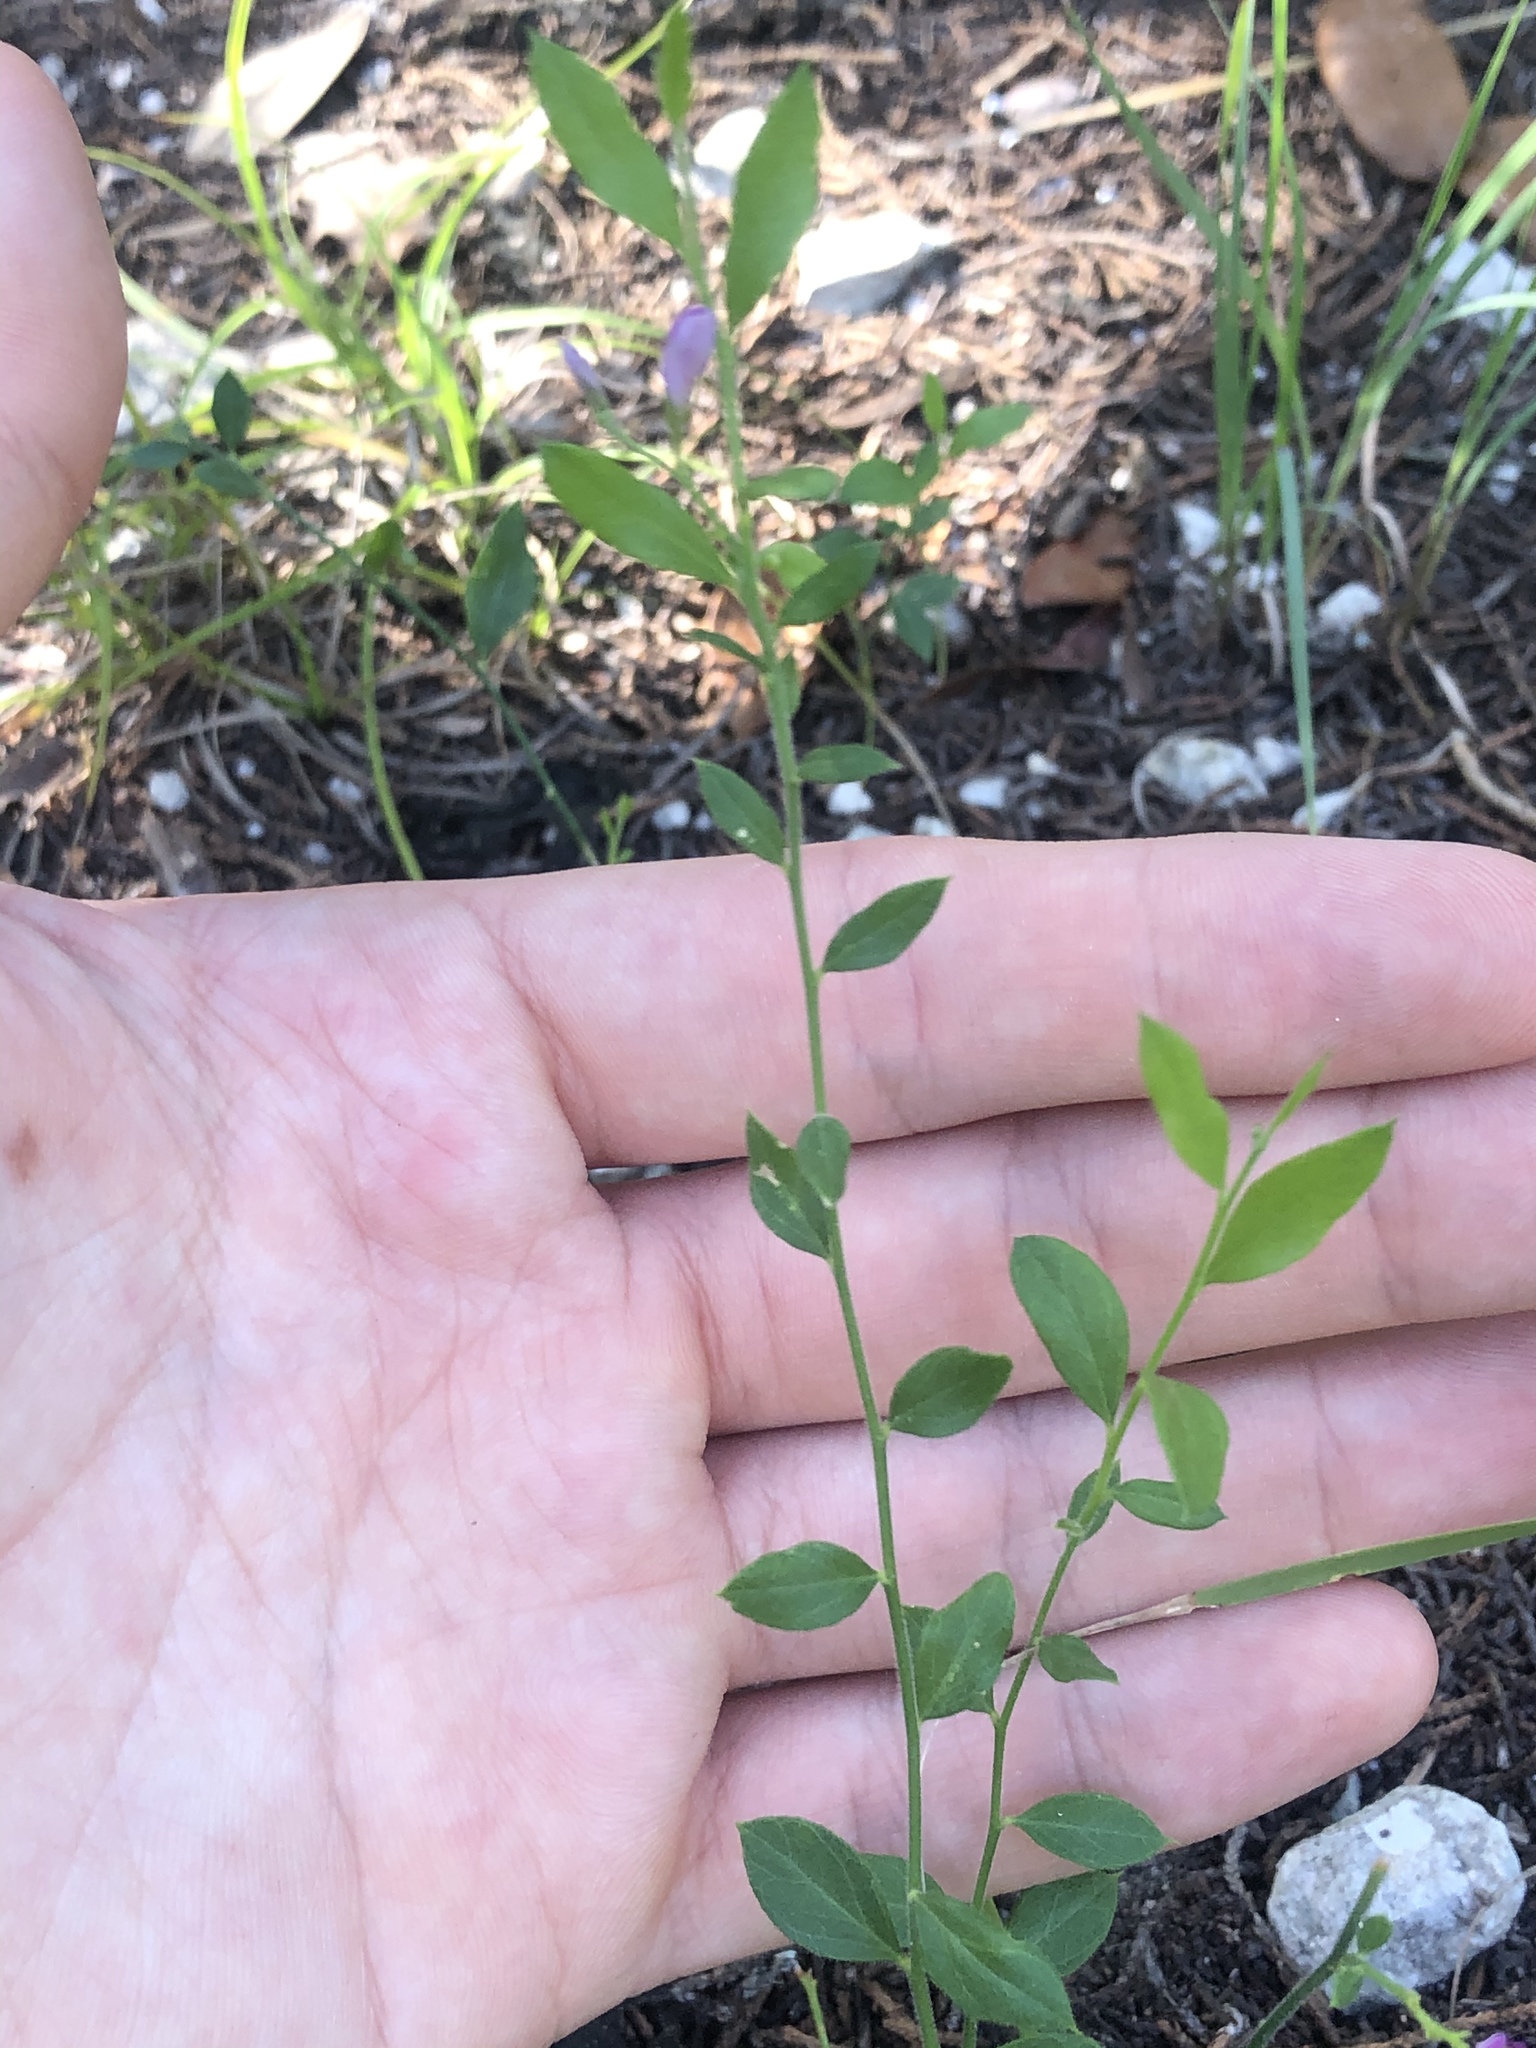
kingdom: Plantae
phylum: Tracheophyta
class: Magnoliopsida
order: Fabales
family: Polygalaceae
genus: Rhinotropis
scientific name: Rhinotropis lindheimeri
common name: Shrubby milkwort
